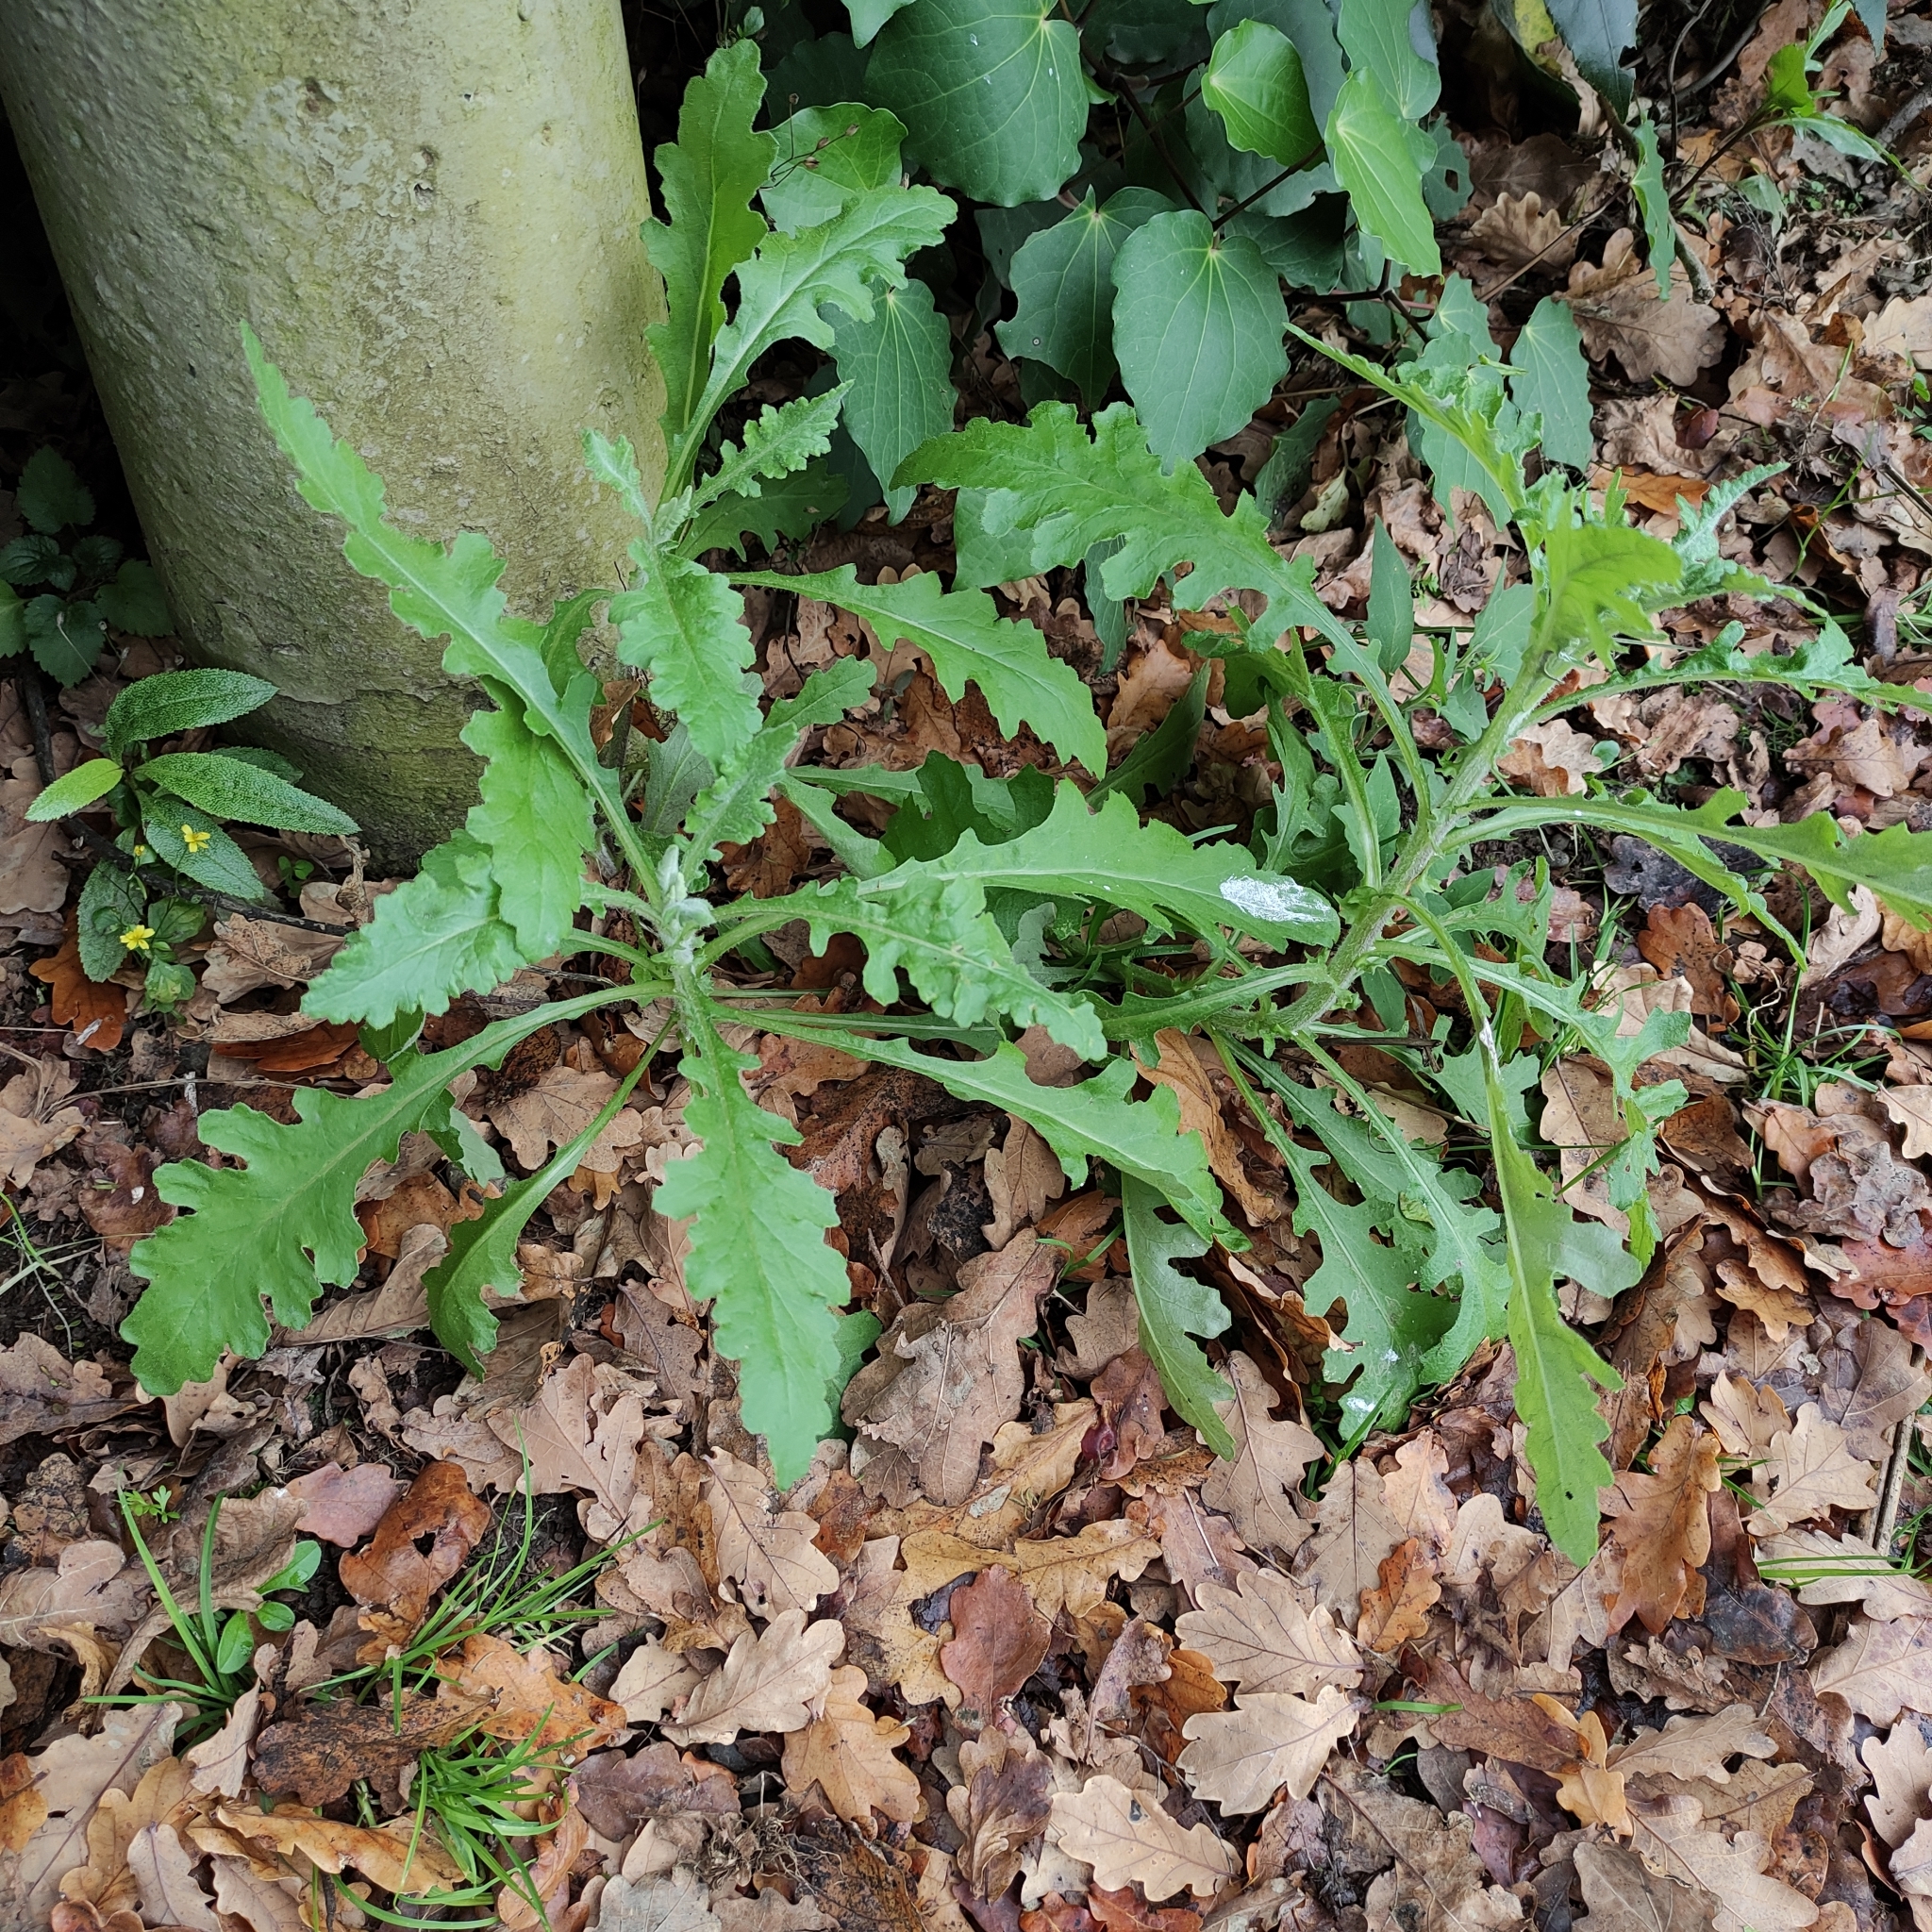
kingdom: Plantae
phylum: Tracheophyta
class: Magnoliopsida
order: Asterales
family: Asteraceae
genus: Senecio
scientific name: Senecio glomeratus
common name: Cutleaf burnweed
